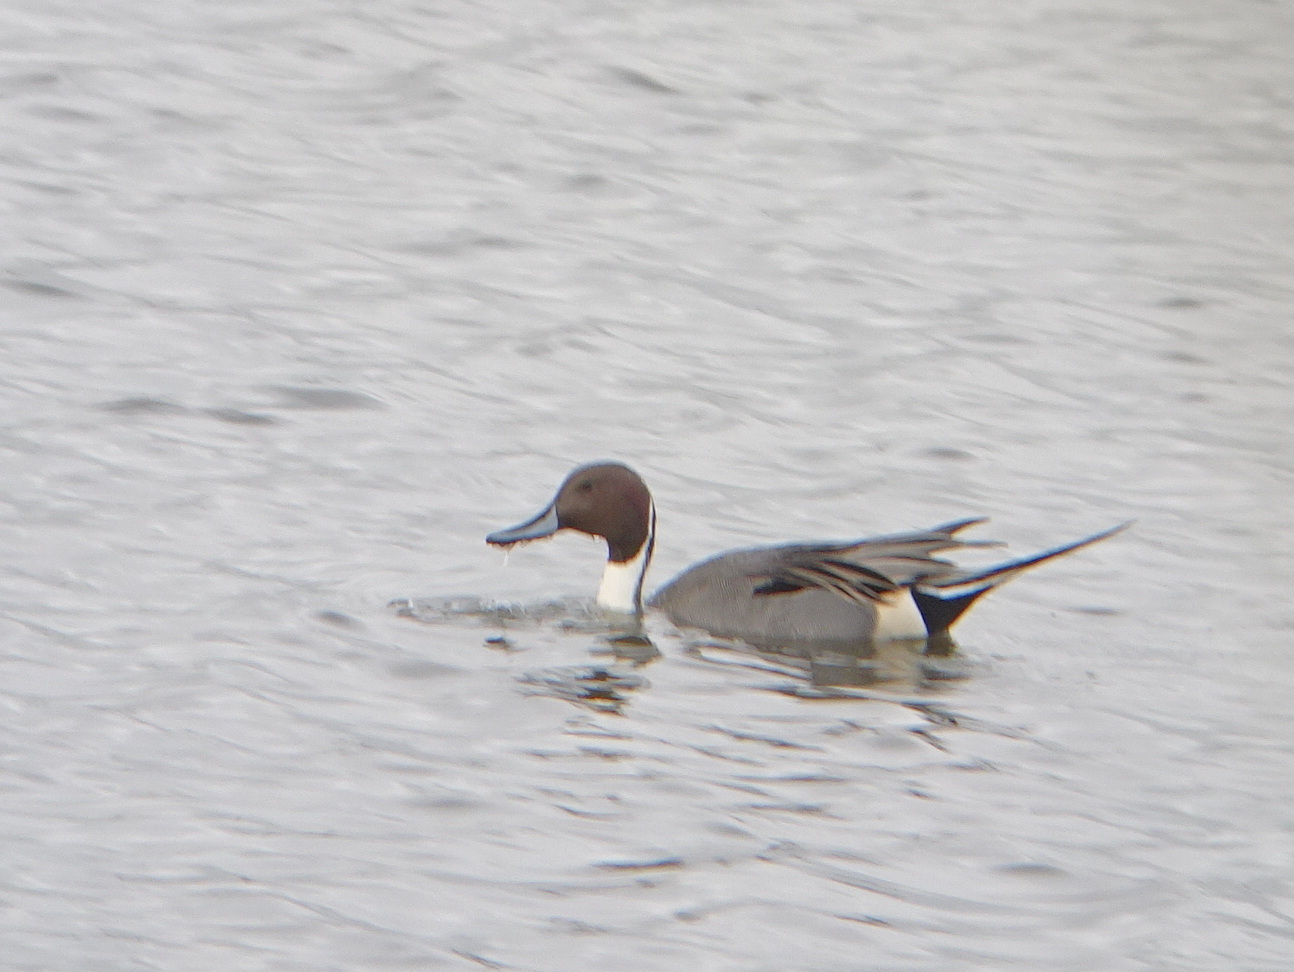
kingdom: Animalia
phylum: Chordata
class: Aves
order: Anseriformes
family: Anatidae
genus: Anas
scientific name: Anas acuta
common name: Northern pintail
